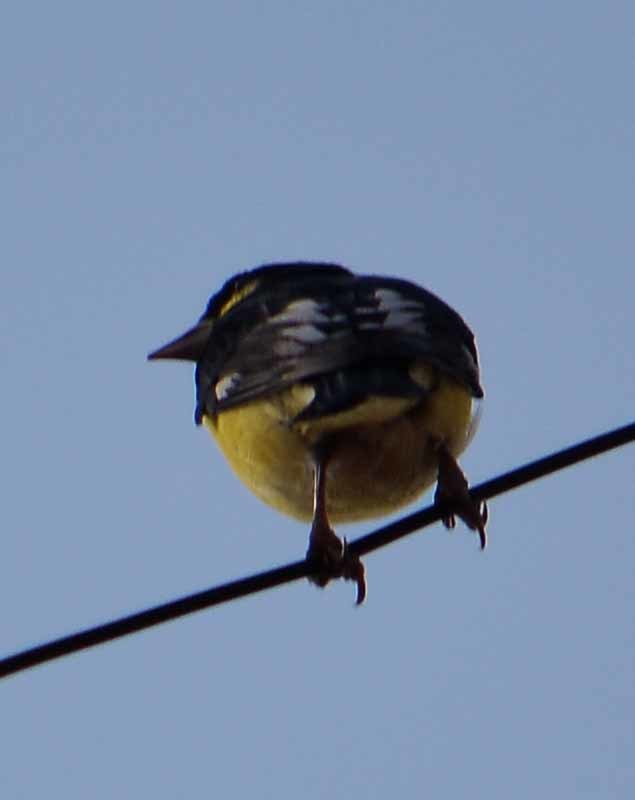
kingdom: Animalia
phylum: Chordata
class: Aves
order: Passeriformes
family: Fringillidae
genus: Spinus
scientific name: Spinus psaltria
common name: Lesser goldfinch
